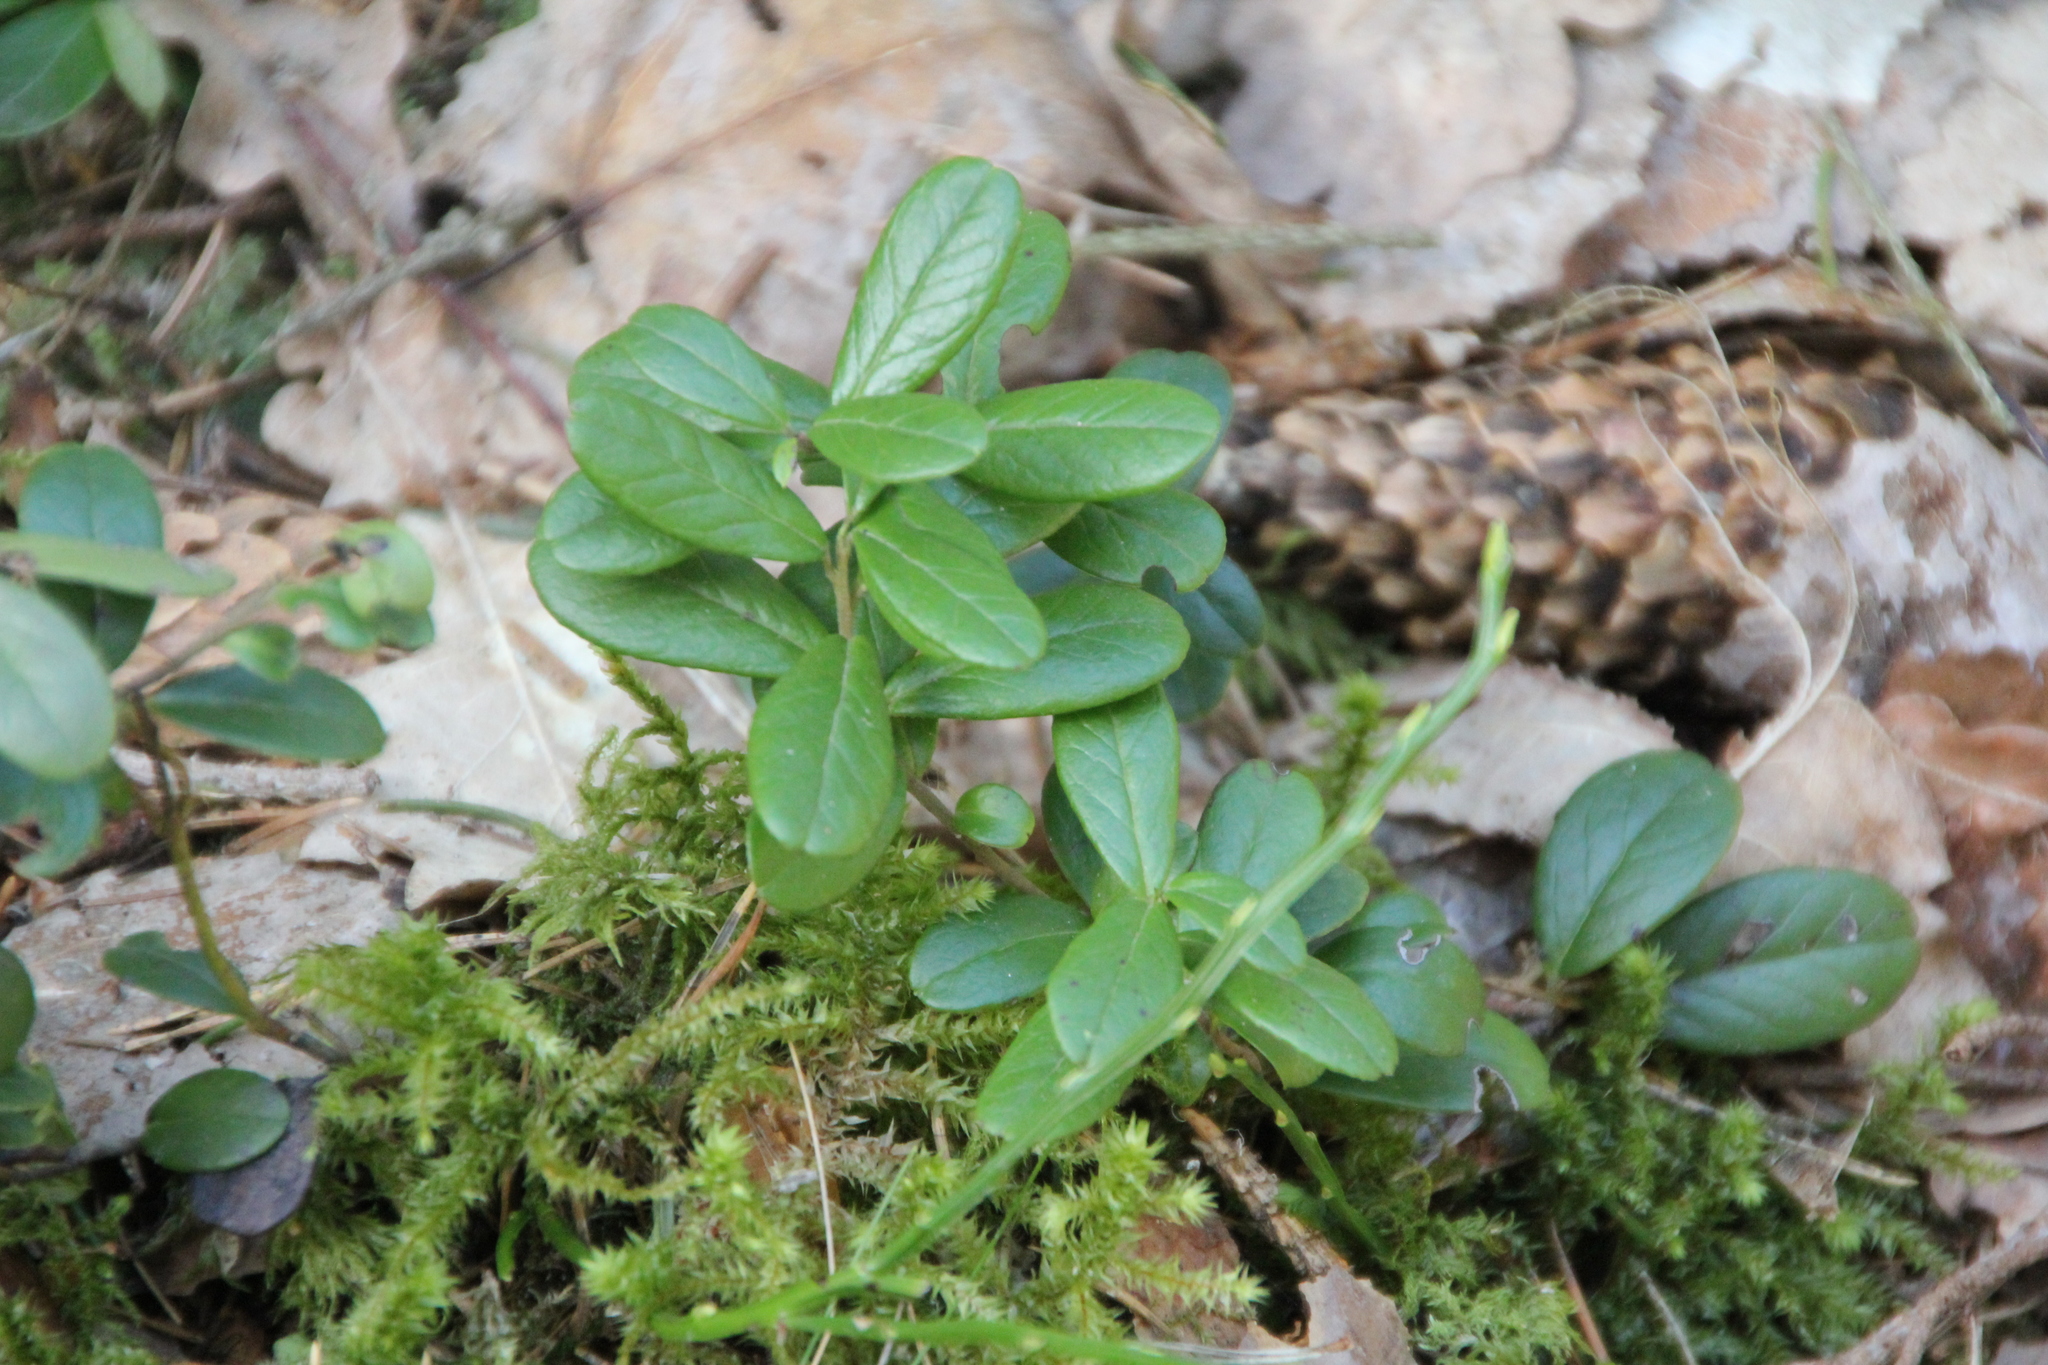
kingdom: Plantae
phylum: Tracheophyta
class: Magnoliopsida
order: Ericales
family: Ericaceae
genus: Vaccinium
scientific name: Vaccinium vitis-idaea
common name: Cowberry
